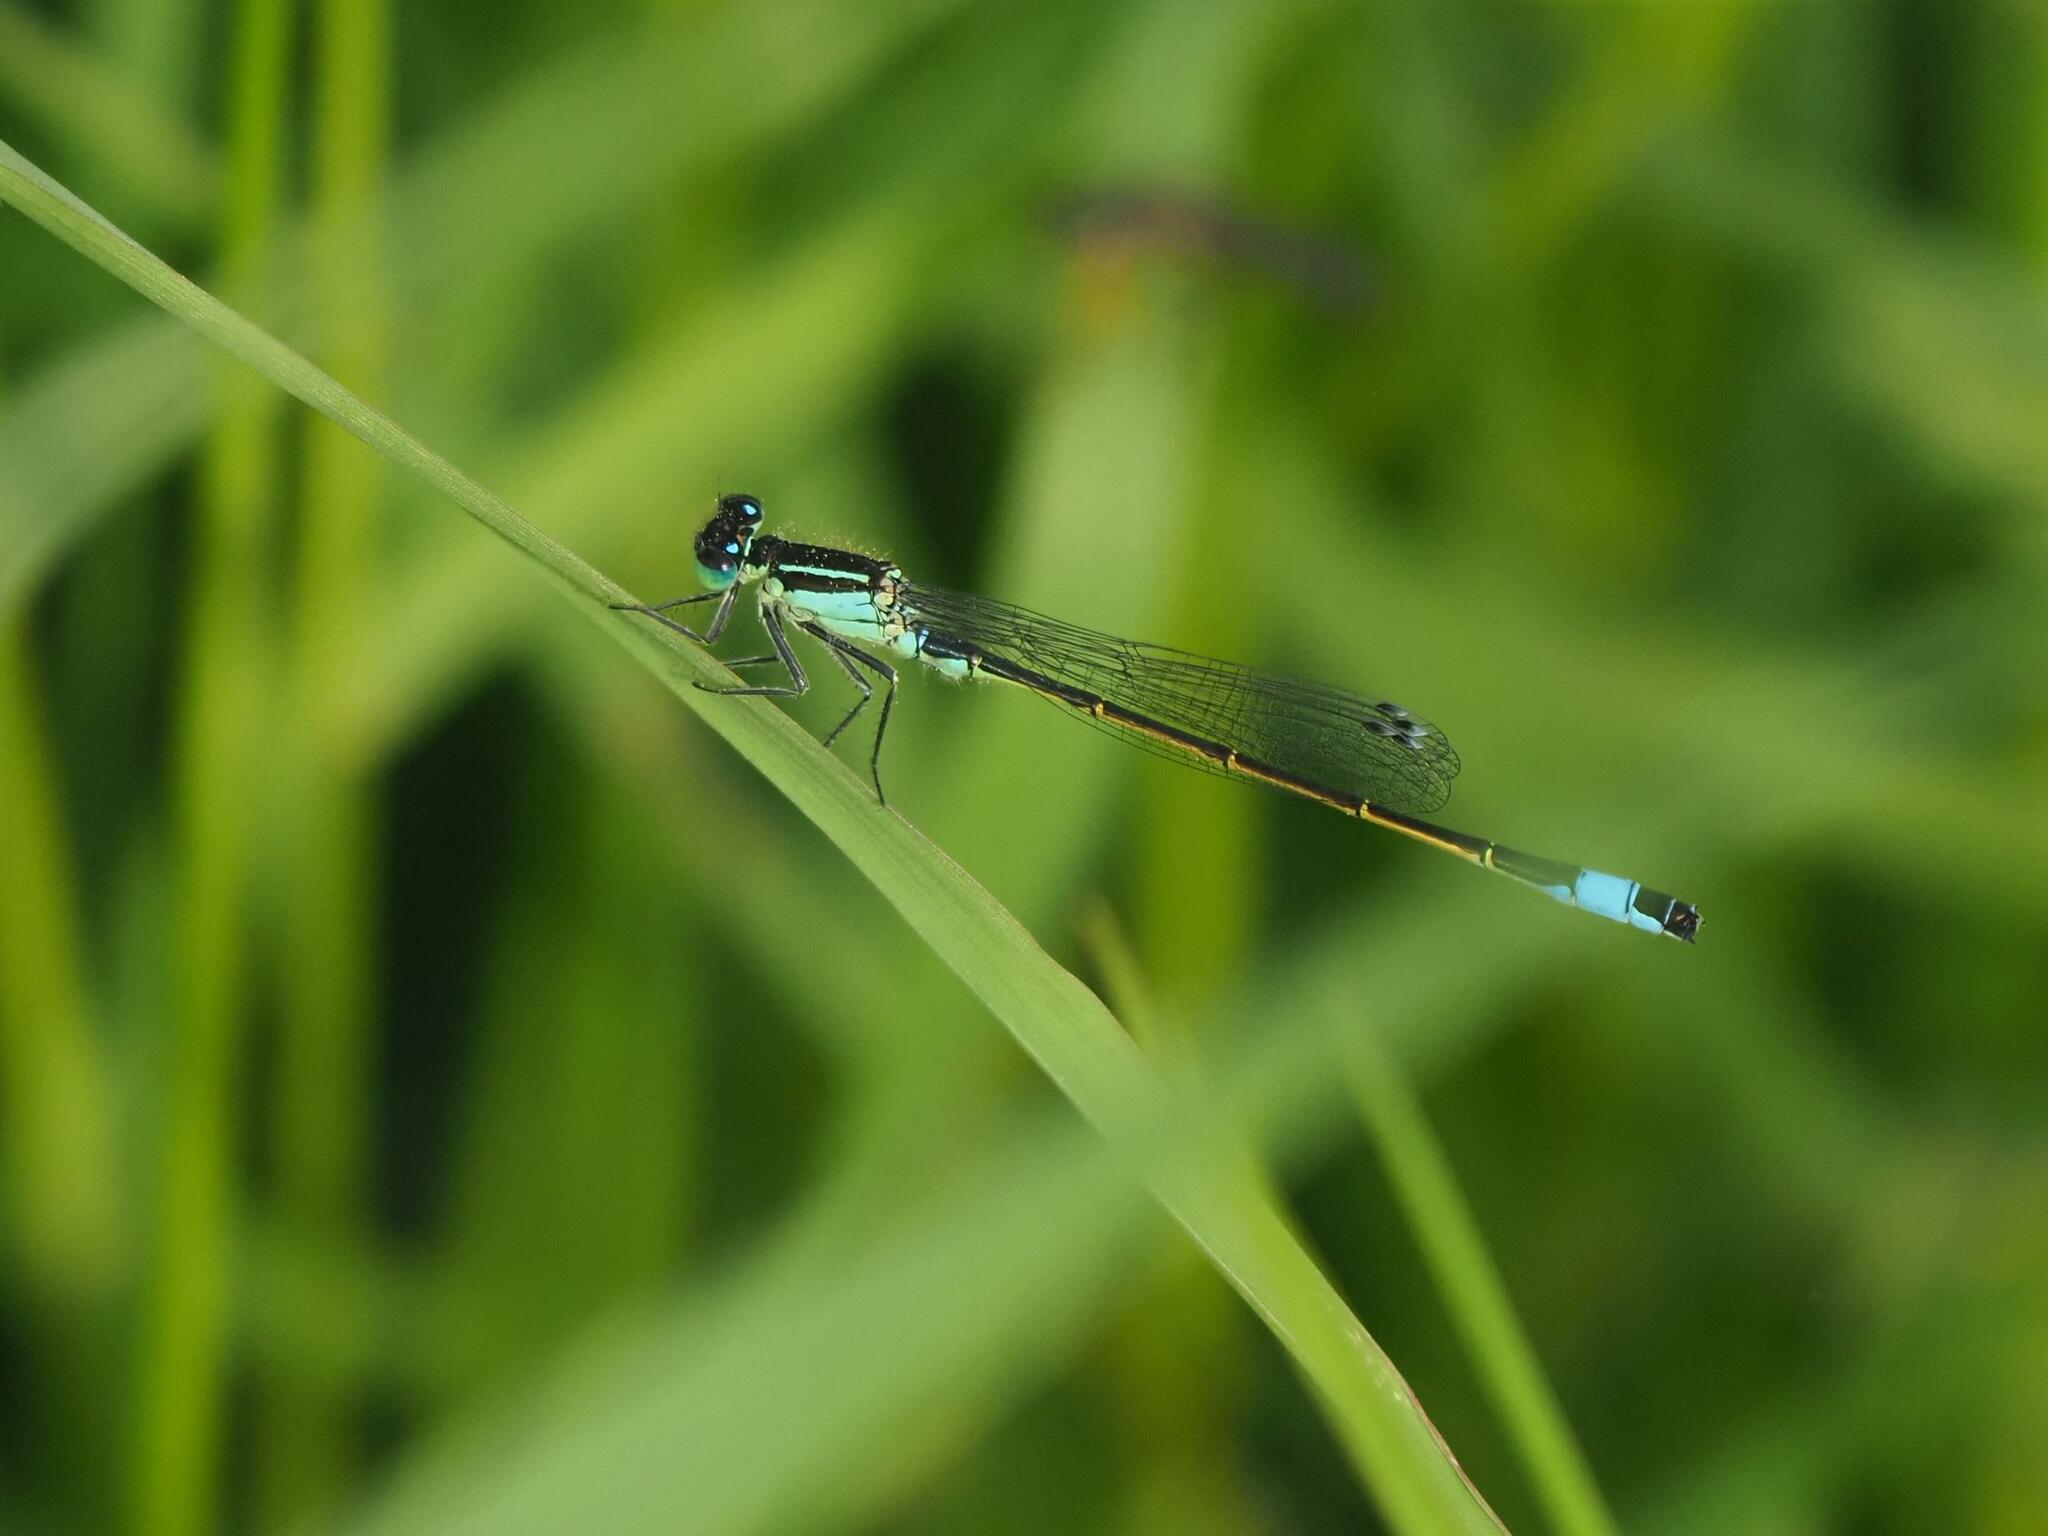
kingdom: Animalia
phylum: Arthropoda
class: Insecta
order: Odonata
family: Coenagrionidae
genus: Ischnura
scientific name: Ischnura elegans
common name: Blue-tailed damselfly
